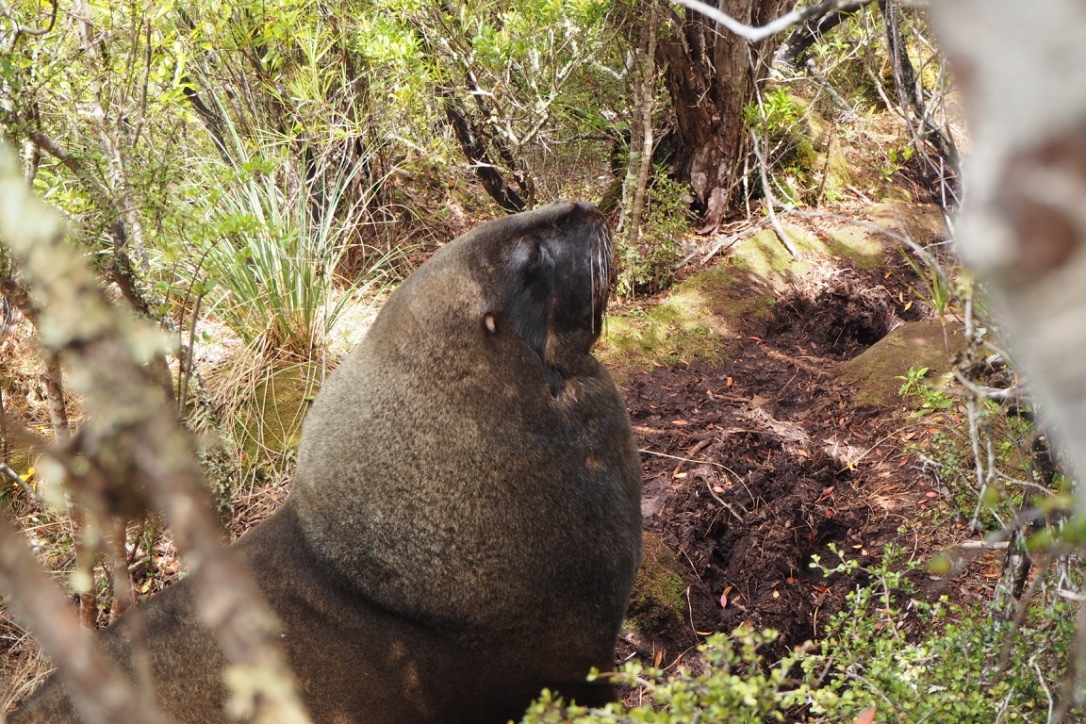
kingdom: Animalia
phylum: Chordata
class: Mammalia
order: Carnivora
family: Otariidae
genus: Phocarctos
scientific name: Phocarctos hookeri
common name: New zealand sea lion
